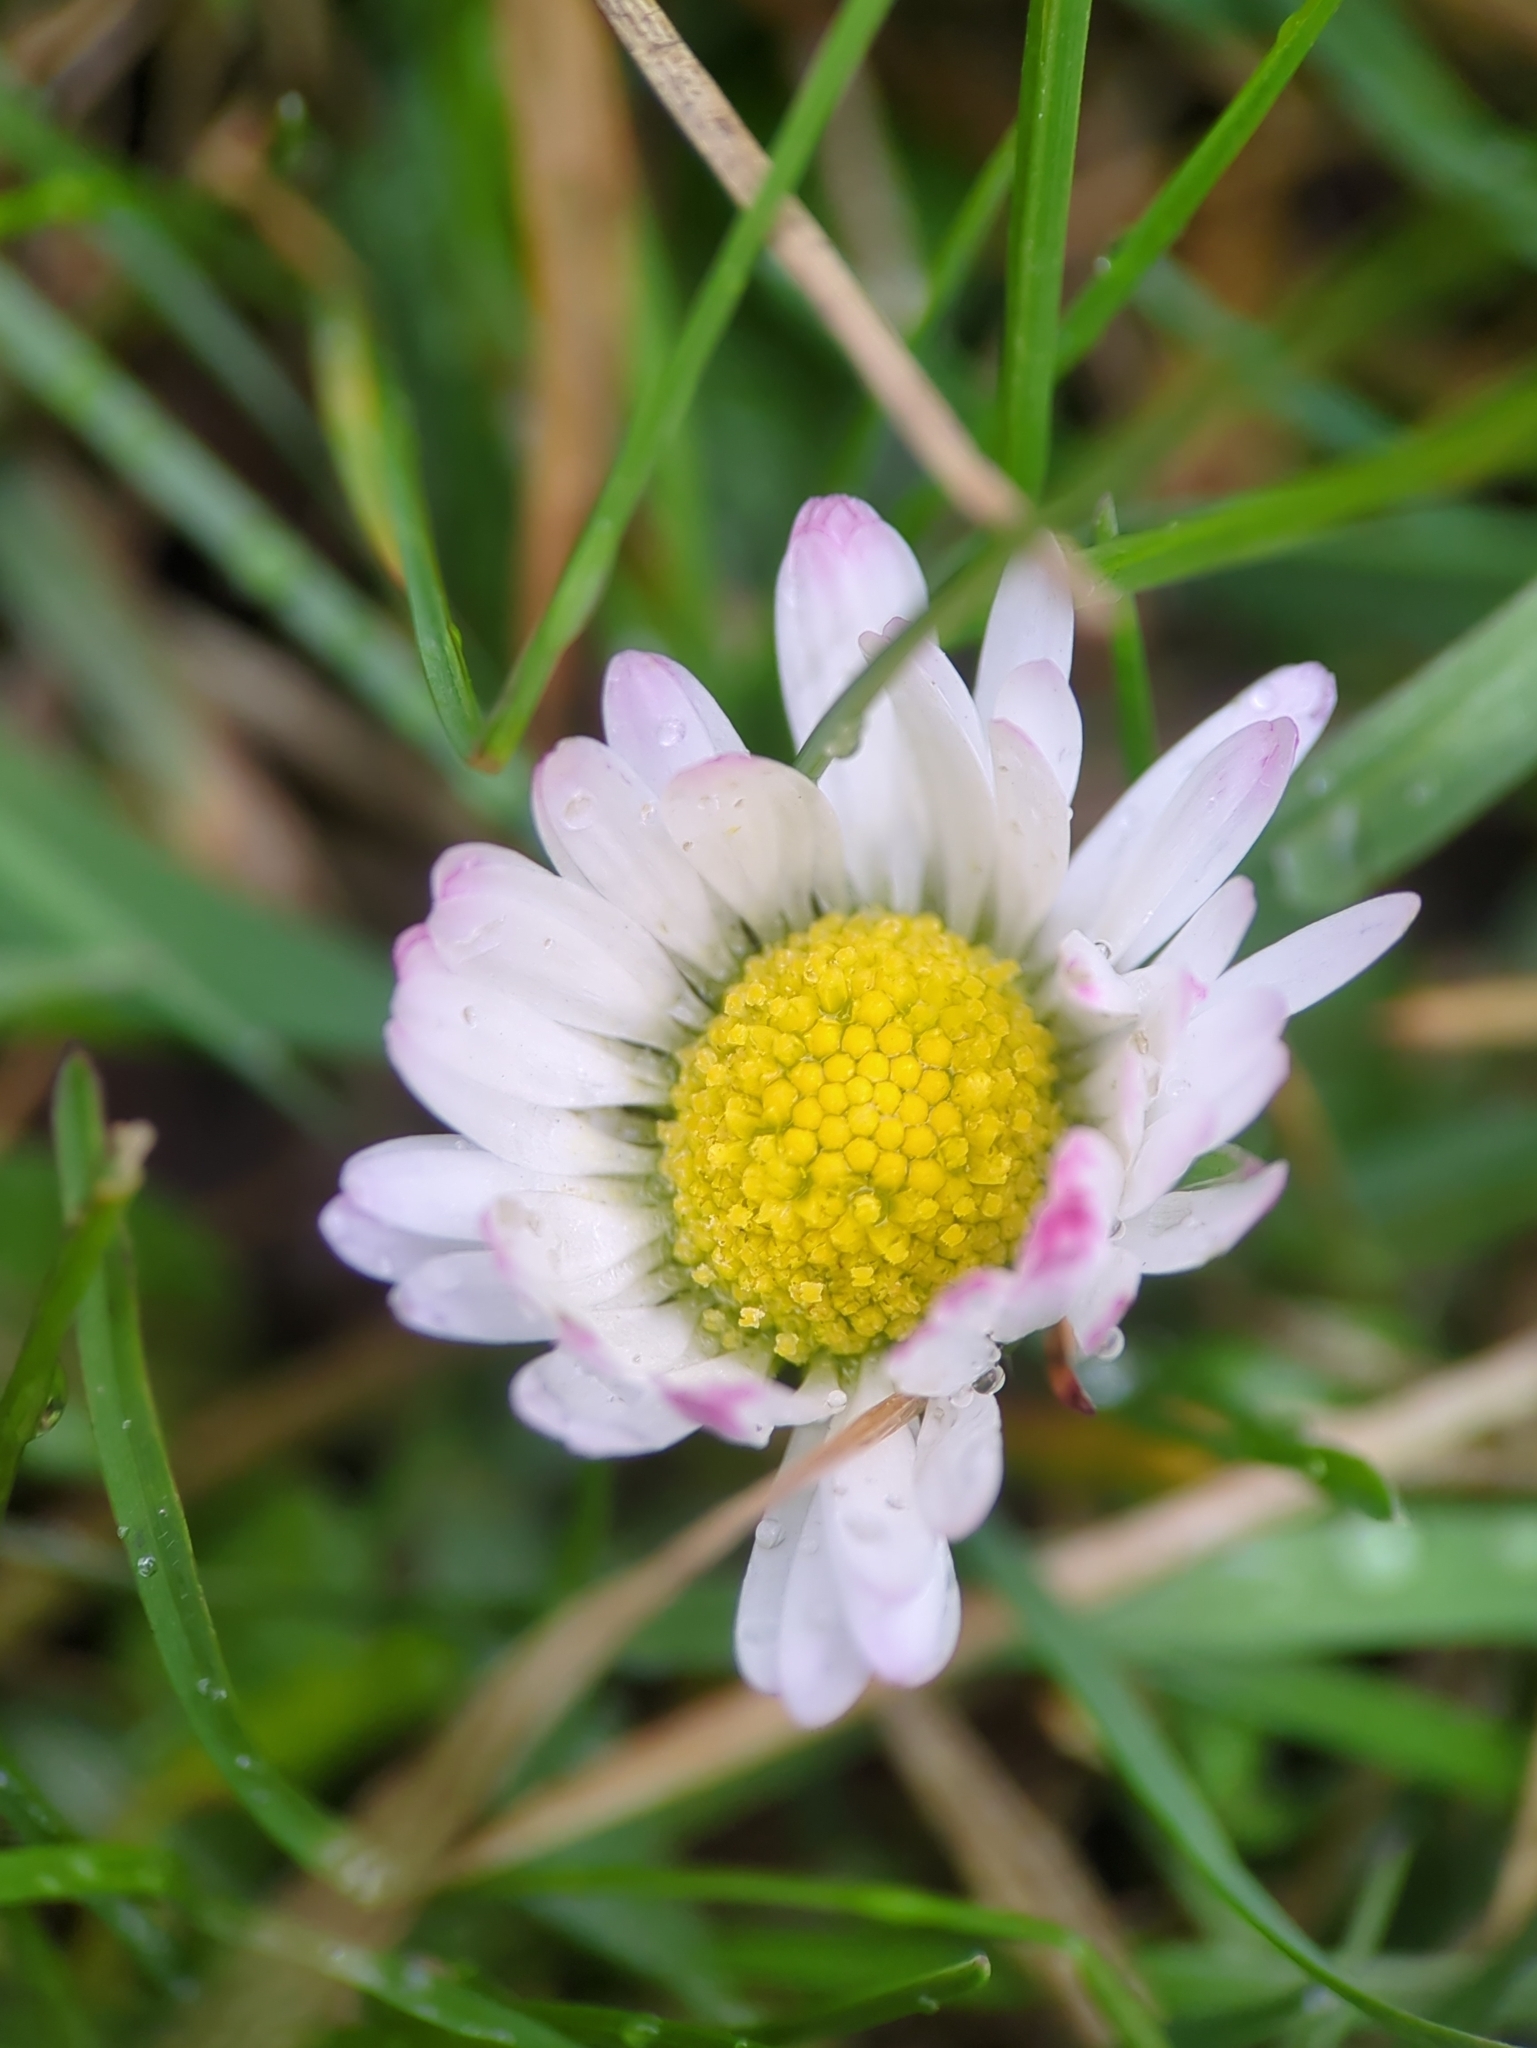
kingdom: Plantae
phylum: Tracheophyta
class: Magnoliopsida
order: Asterales
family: Asteraceae
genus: Bellis
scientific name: Bellis perennis
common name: Lawndaisy
